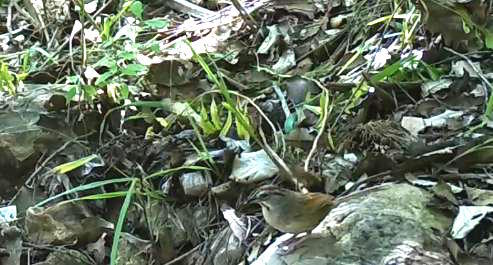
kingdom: Animalia
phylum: Chordata
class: Aves
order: Passeriformes
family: Passerellidae
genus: Aimophila
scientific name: Aimophila rufescens
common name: Rusty sparrow
